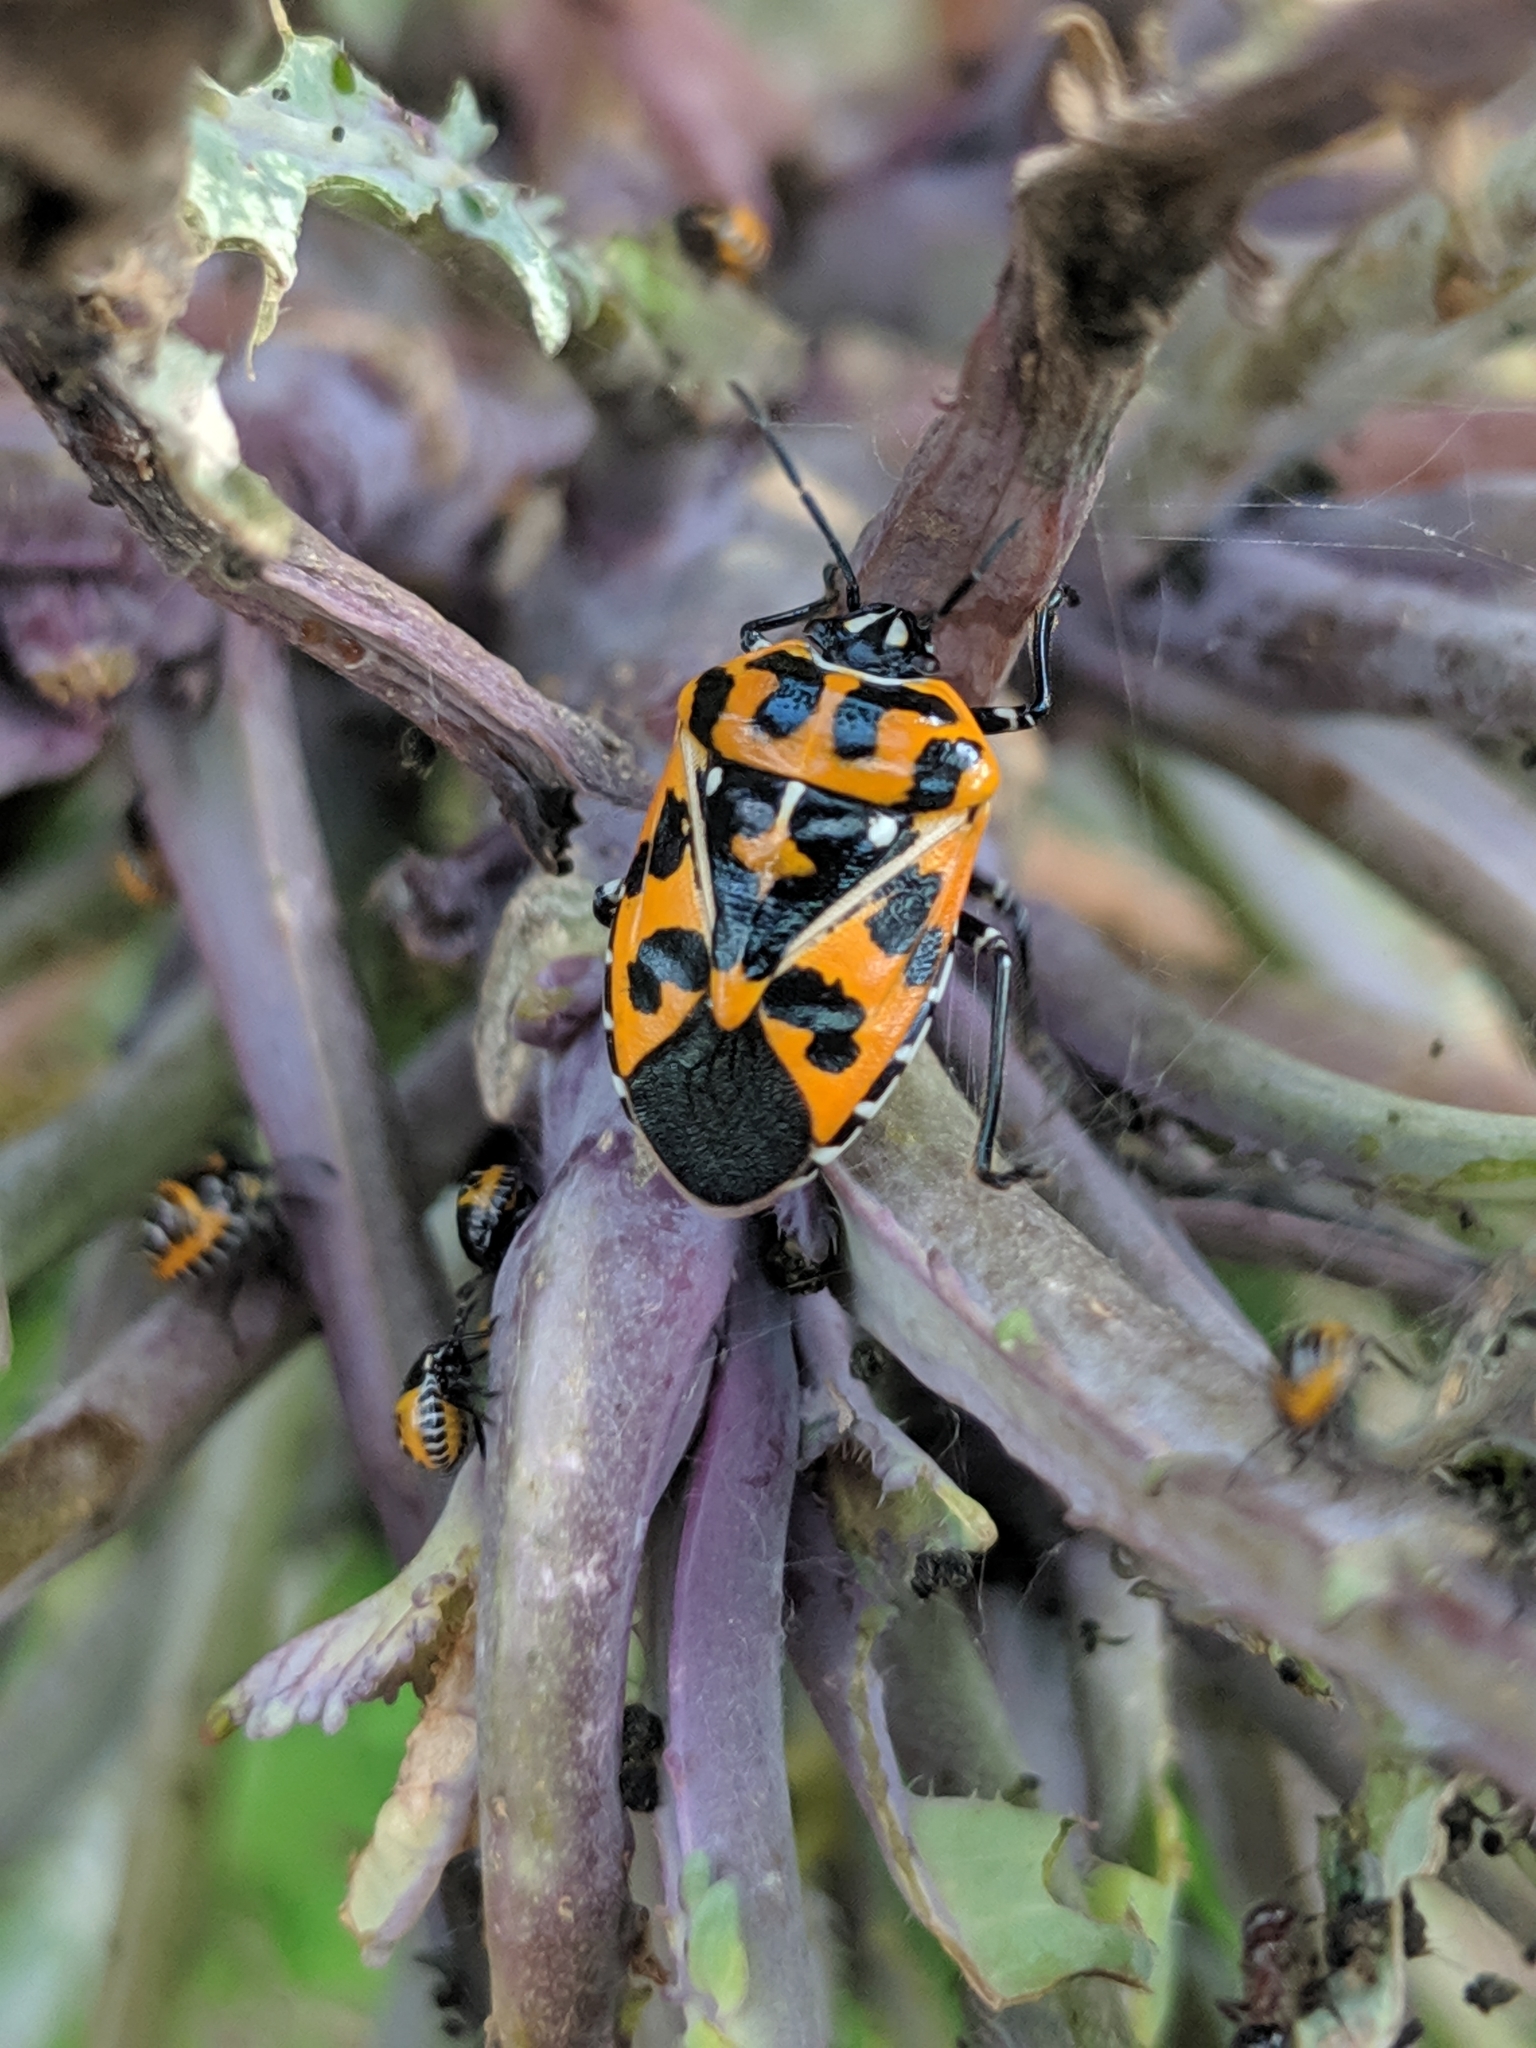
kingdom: Animalia
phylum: Arthropoda
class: Insecta
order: Hemiptera
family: Pentatomidae
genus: Murgantia
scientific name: Murgantia histrionica
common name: Harlequin bug
